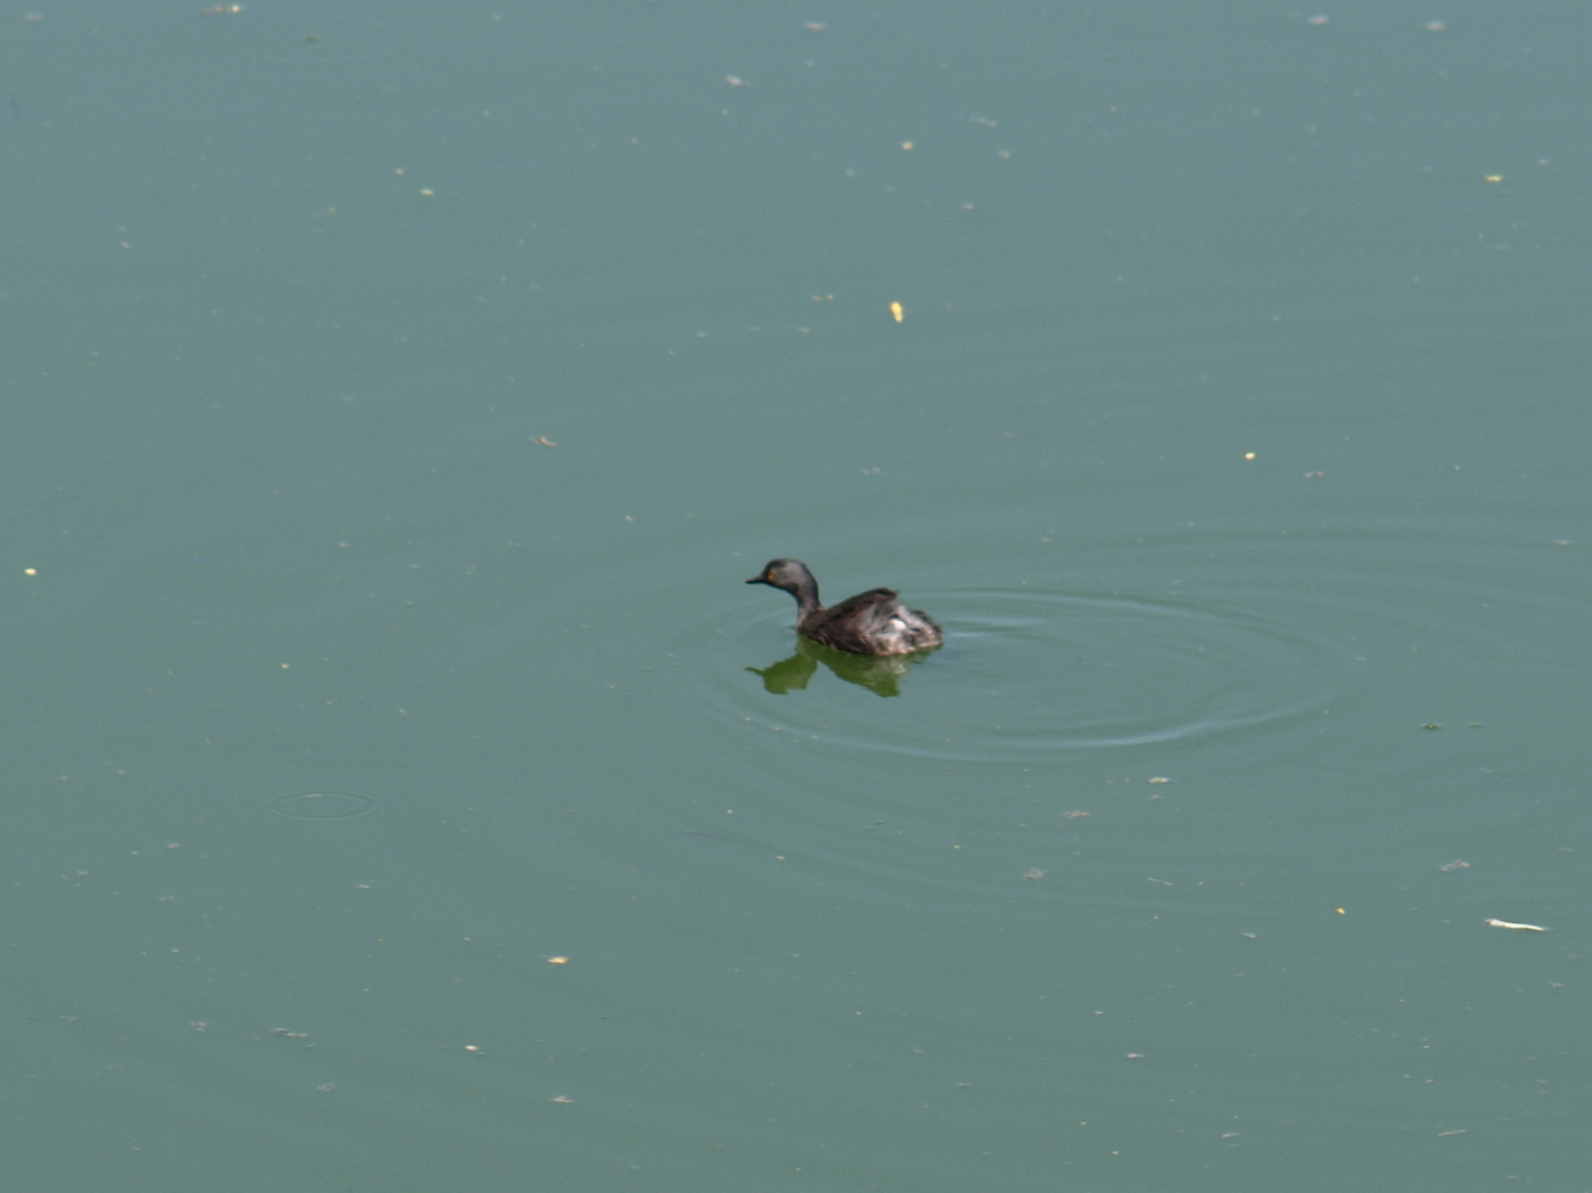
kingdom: Animalia
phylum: Chordata
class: Aves
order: Podicipediformes
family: Podicipedidae
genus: Tachybaptus
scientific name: Tachybaptus dominicus
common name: Least grebe
